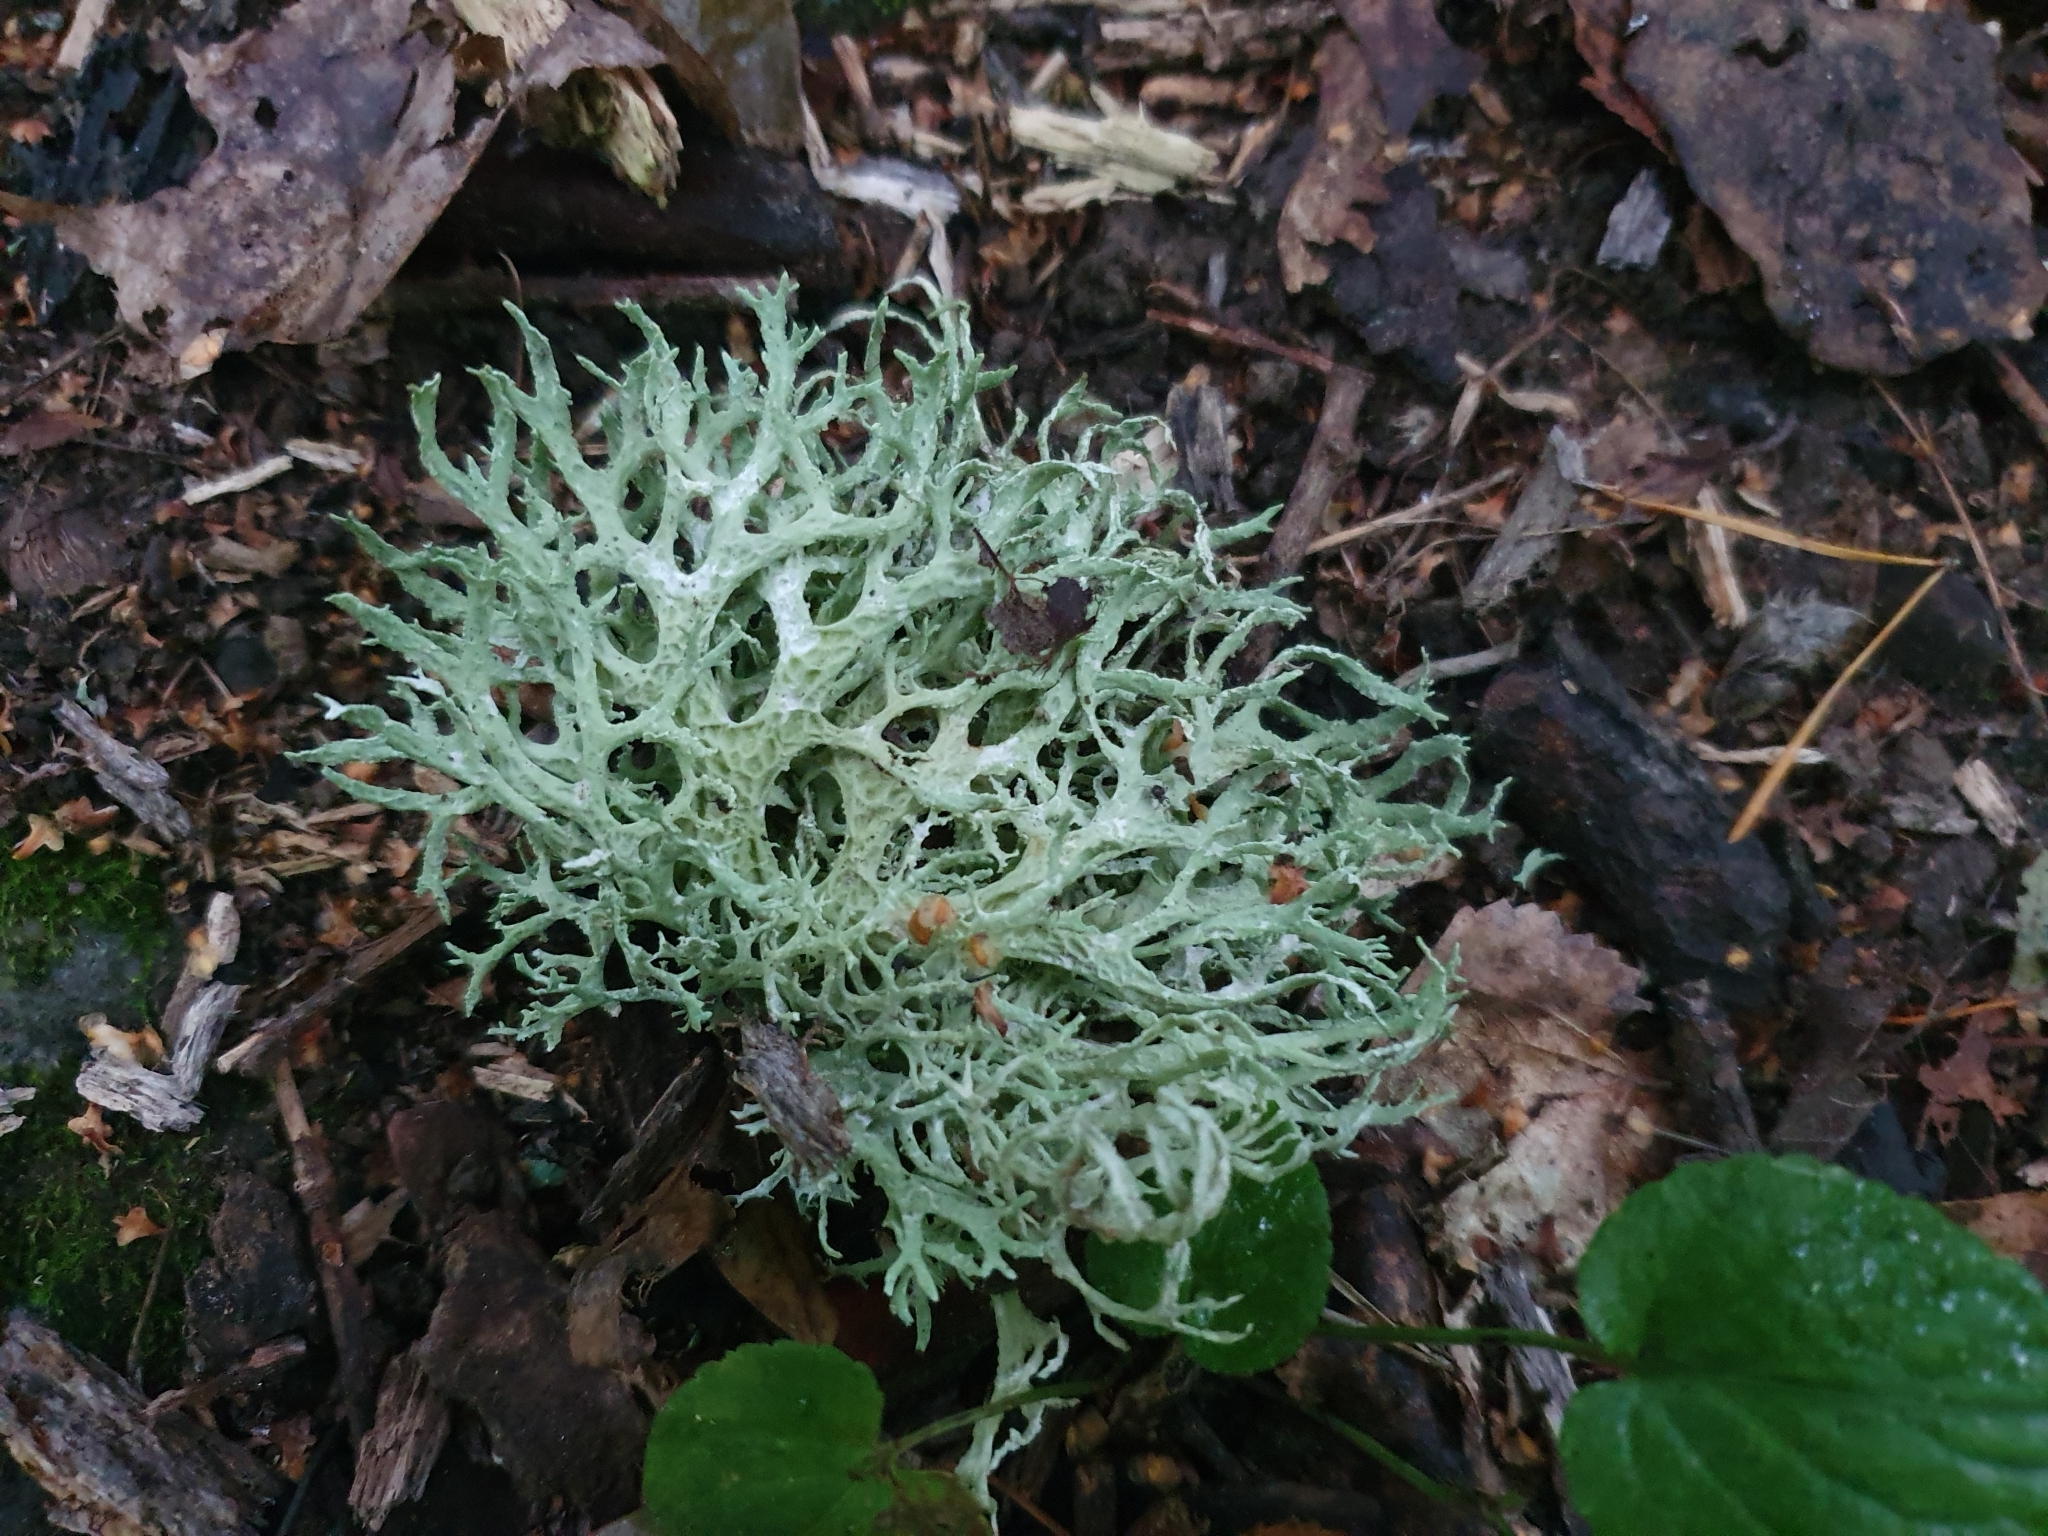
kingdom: Fungi
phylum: Ascomycota
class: Lecanoromycetes
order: Lecanorales
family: Parmeliaceae
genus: Evernia
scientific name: Evernia prunastri
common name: Oak moss
